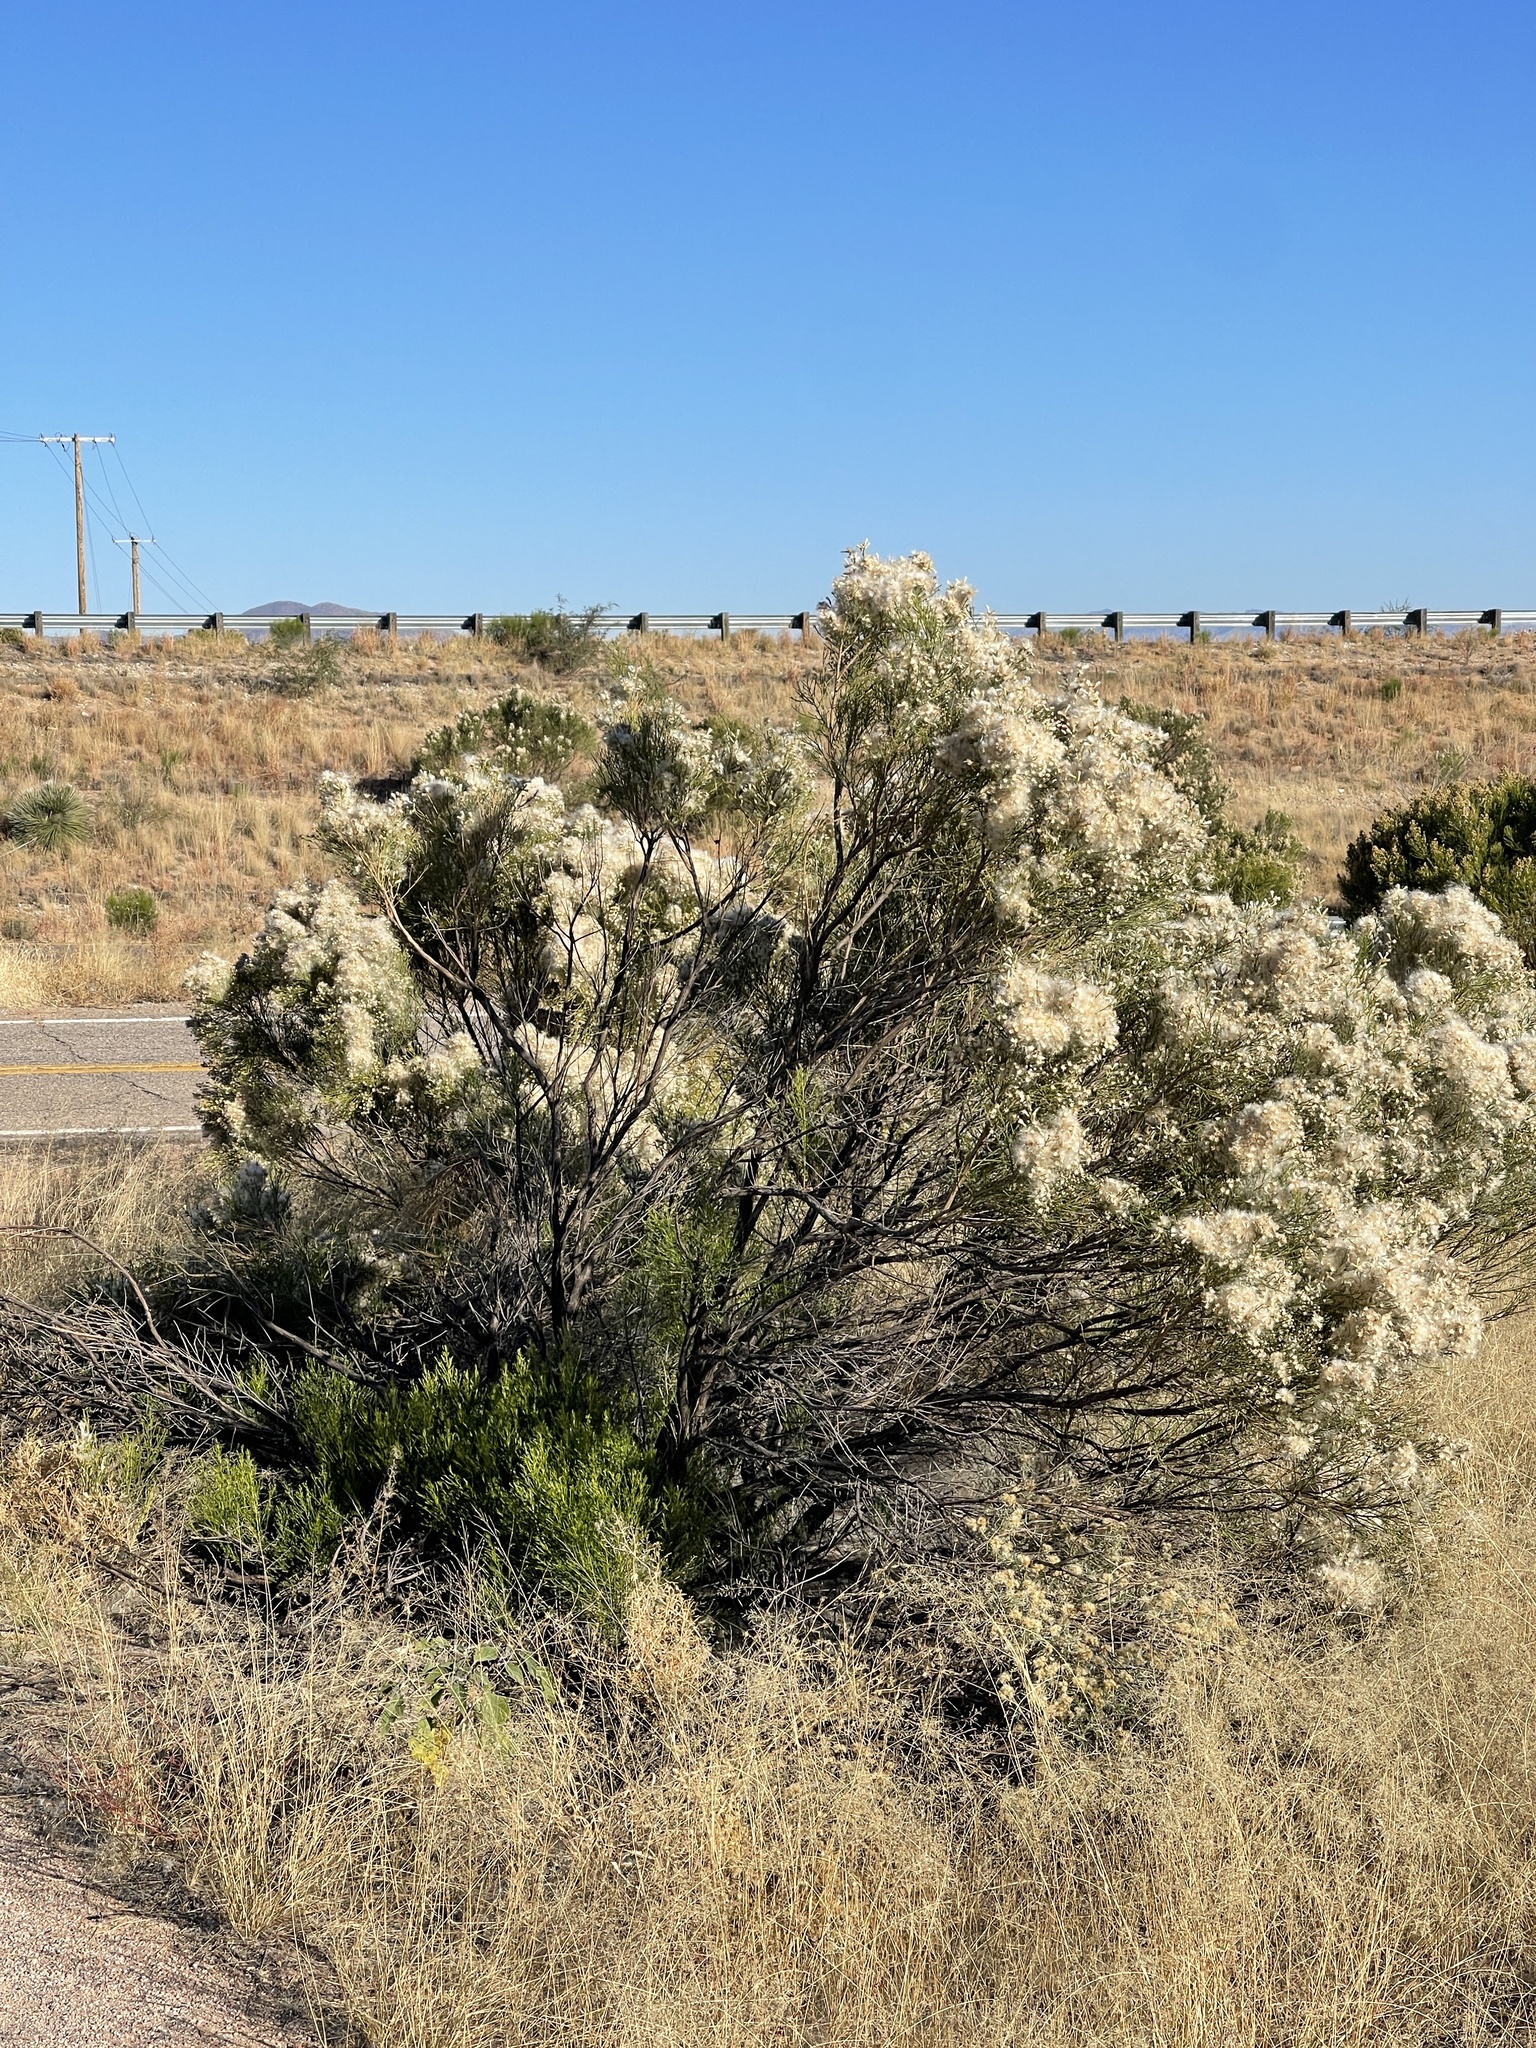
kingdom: Plantae
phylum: Tracheophyta
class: Magnoliopsida
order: Asterales
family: Asteraceae
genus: Baccharis
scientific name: Baccharis sarothroides
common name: Desert-broom
